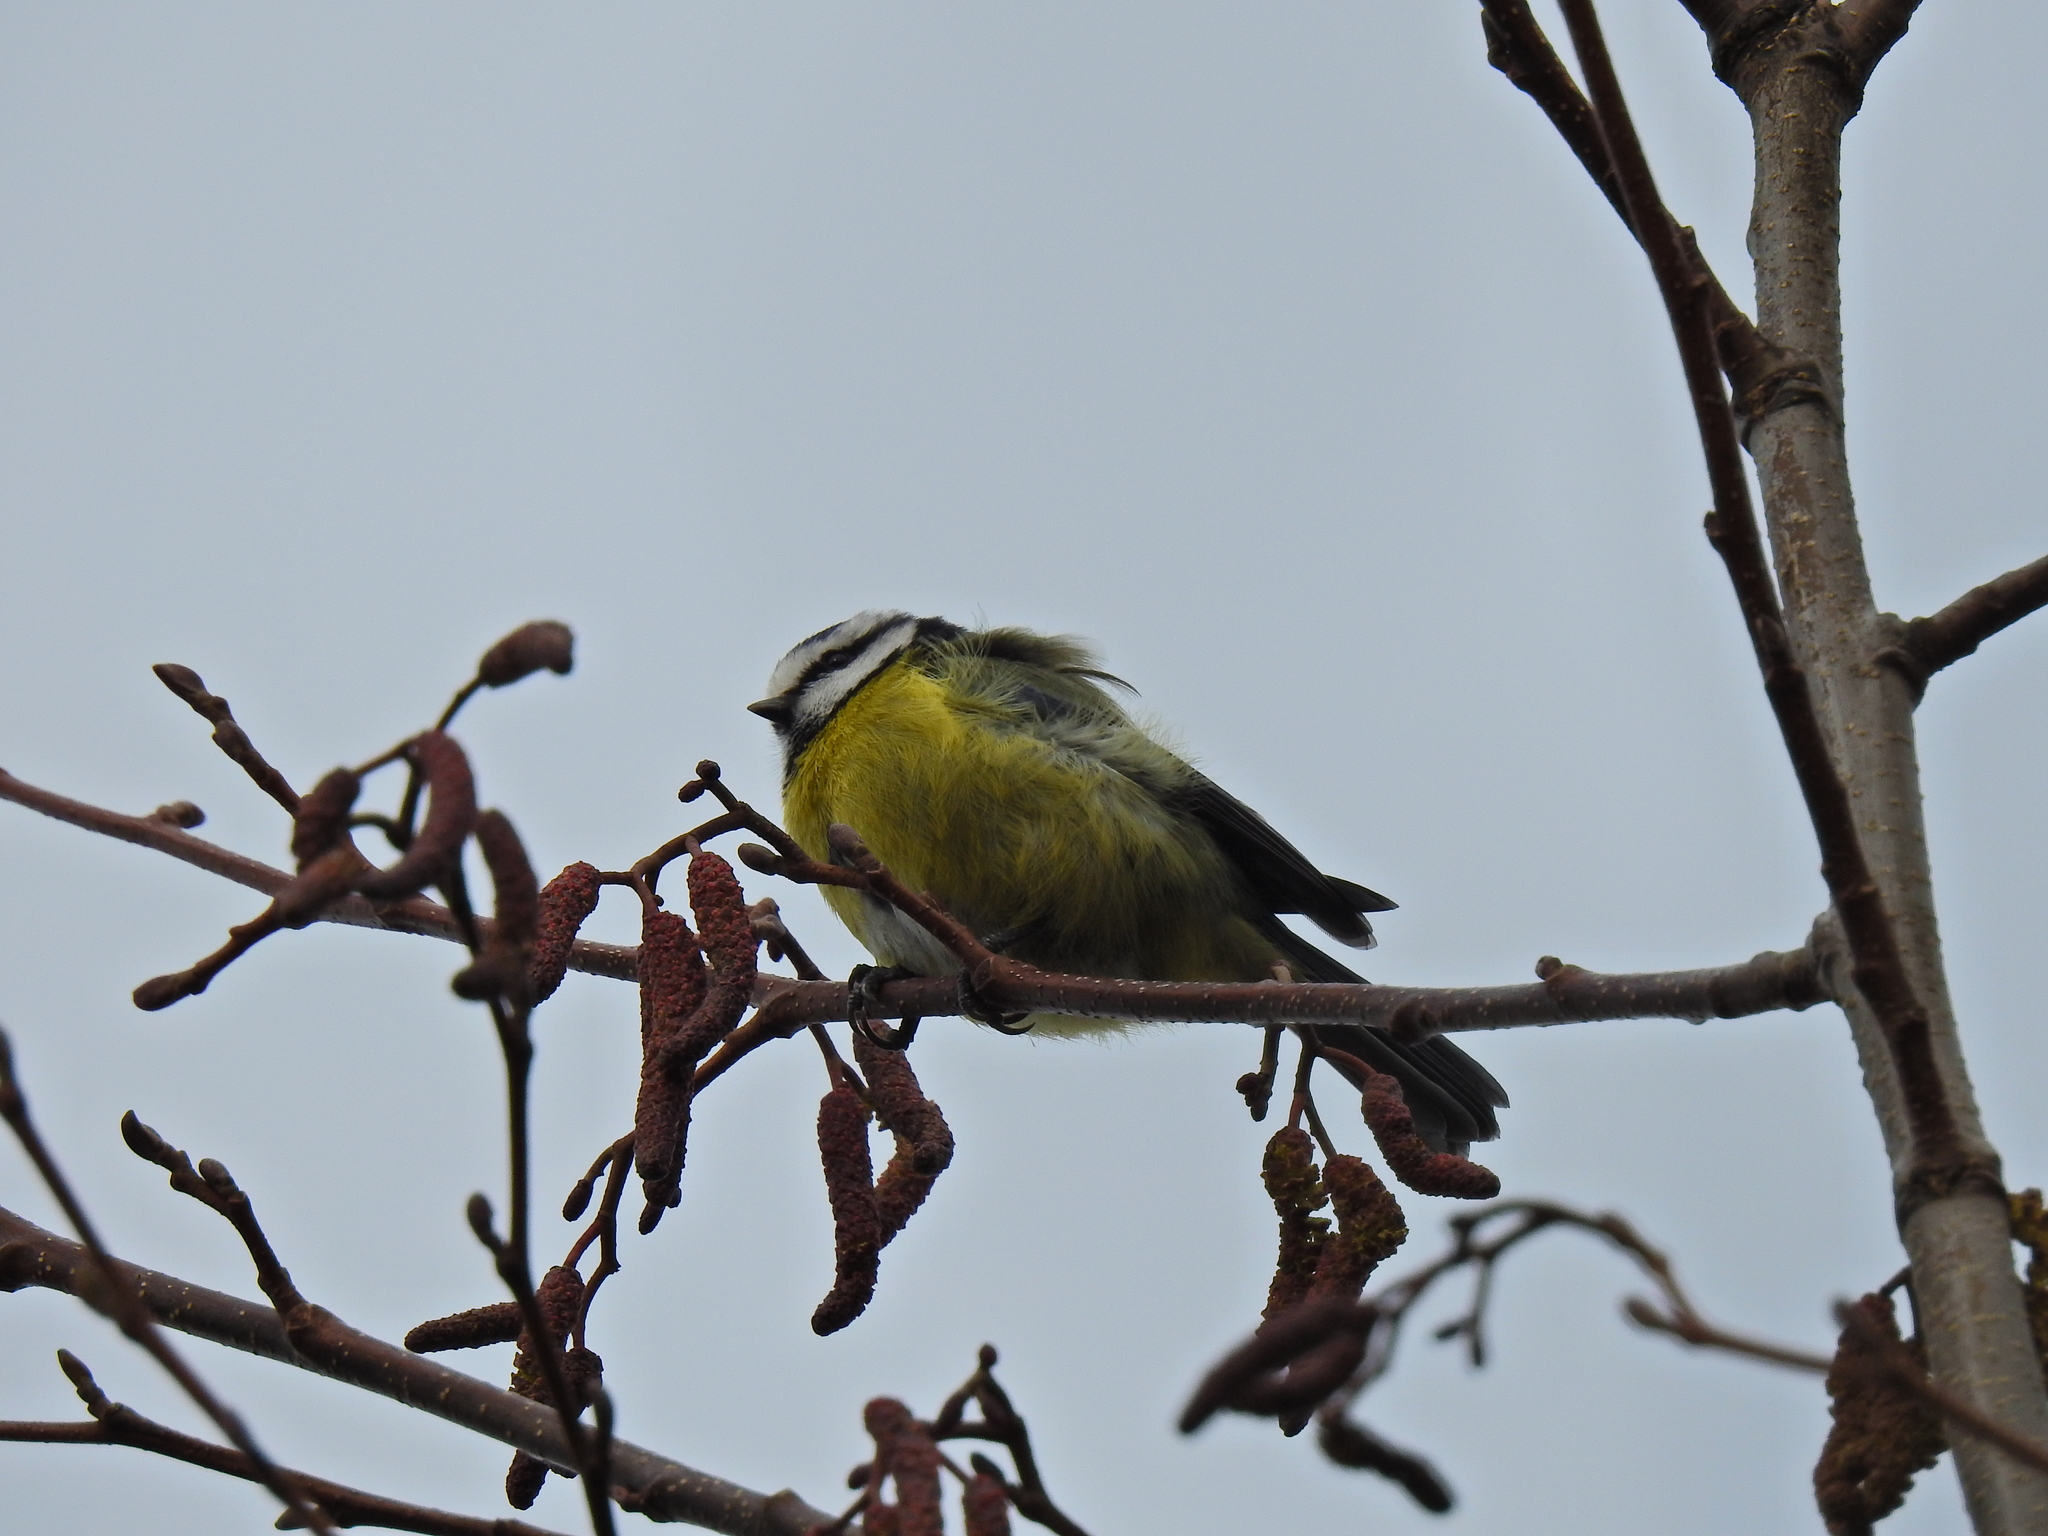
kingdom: Animalia
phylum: Chordata
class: Aves
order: Passeriformes
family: Paridae
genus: Cyanistes
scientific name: Cyanistes caeruleus
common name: Eurasian blue tit
